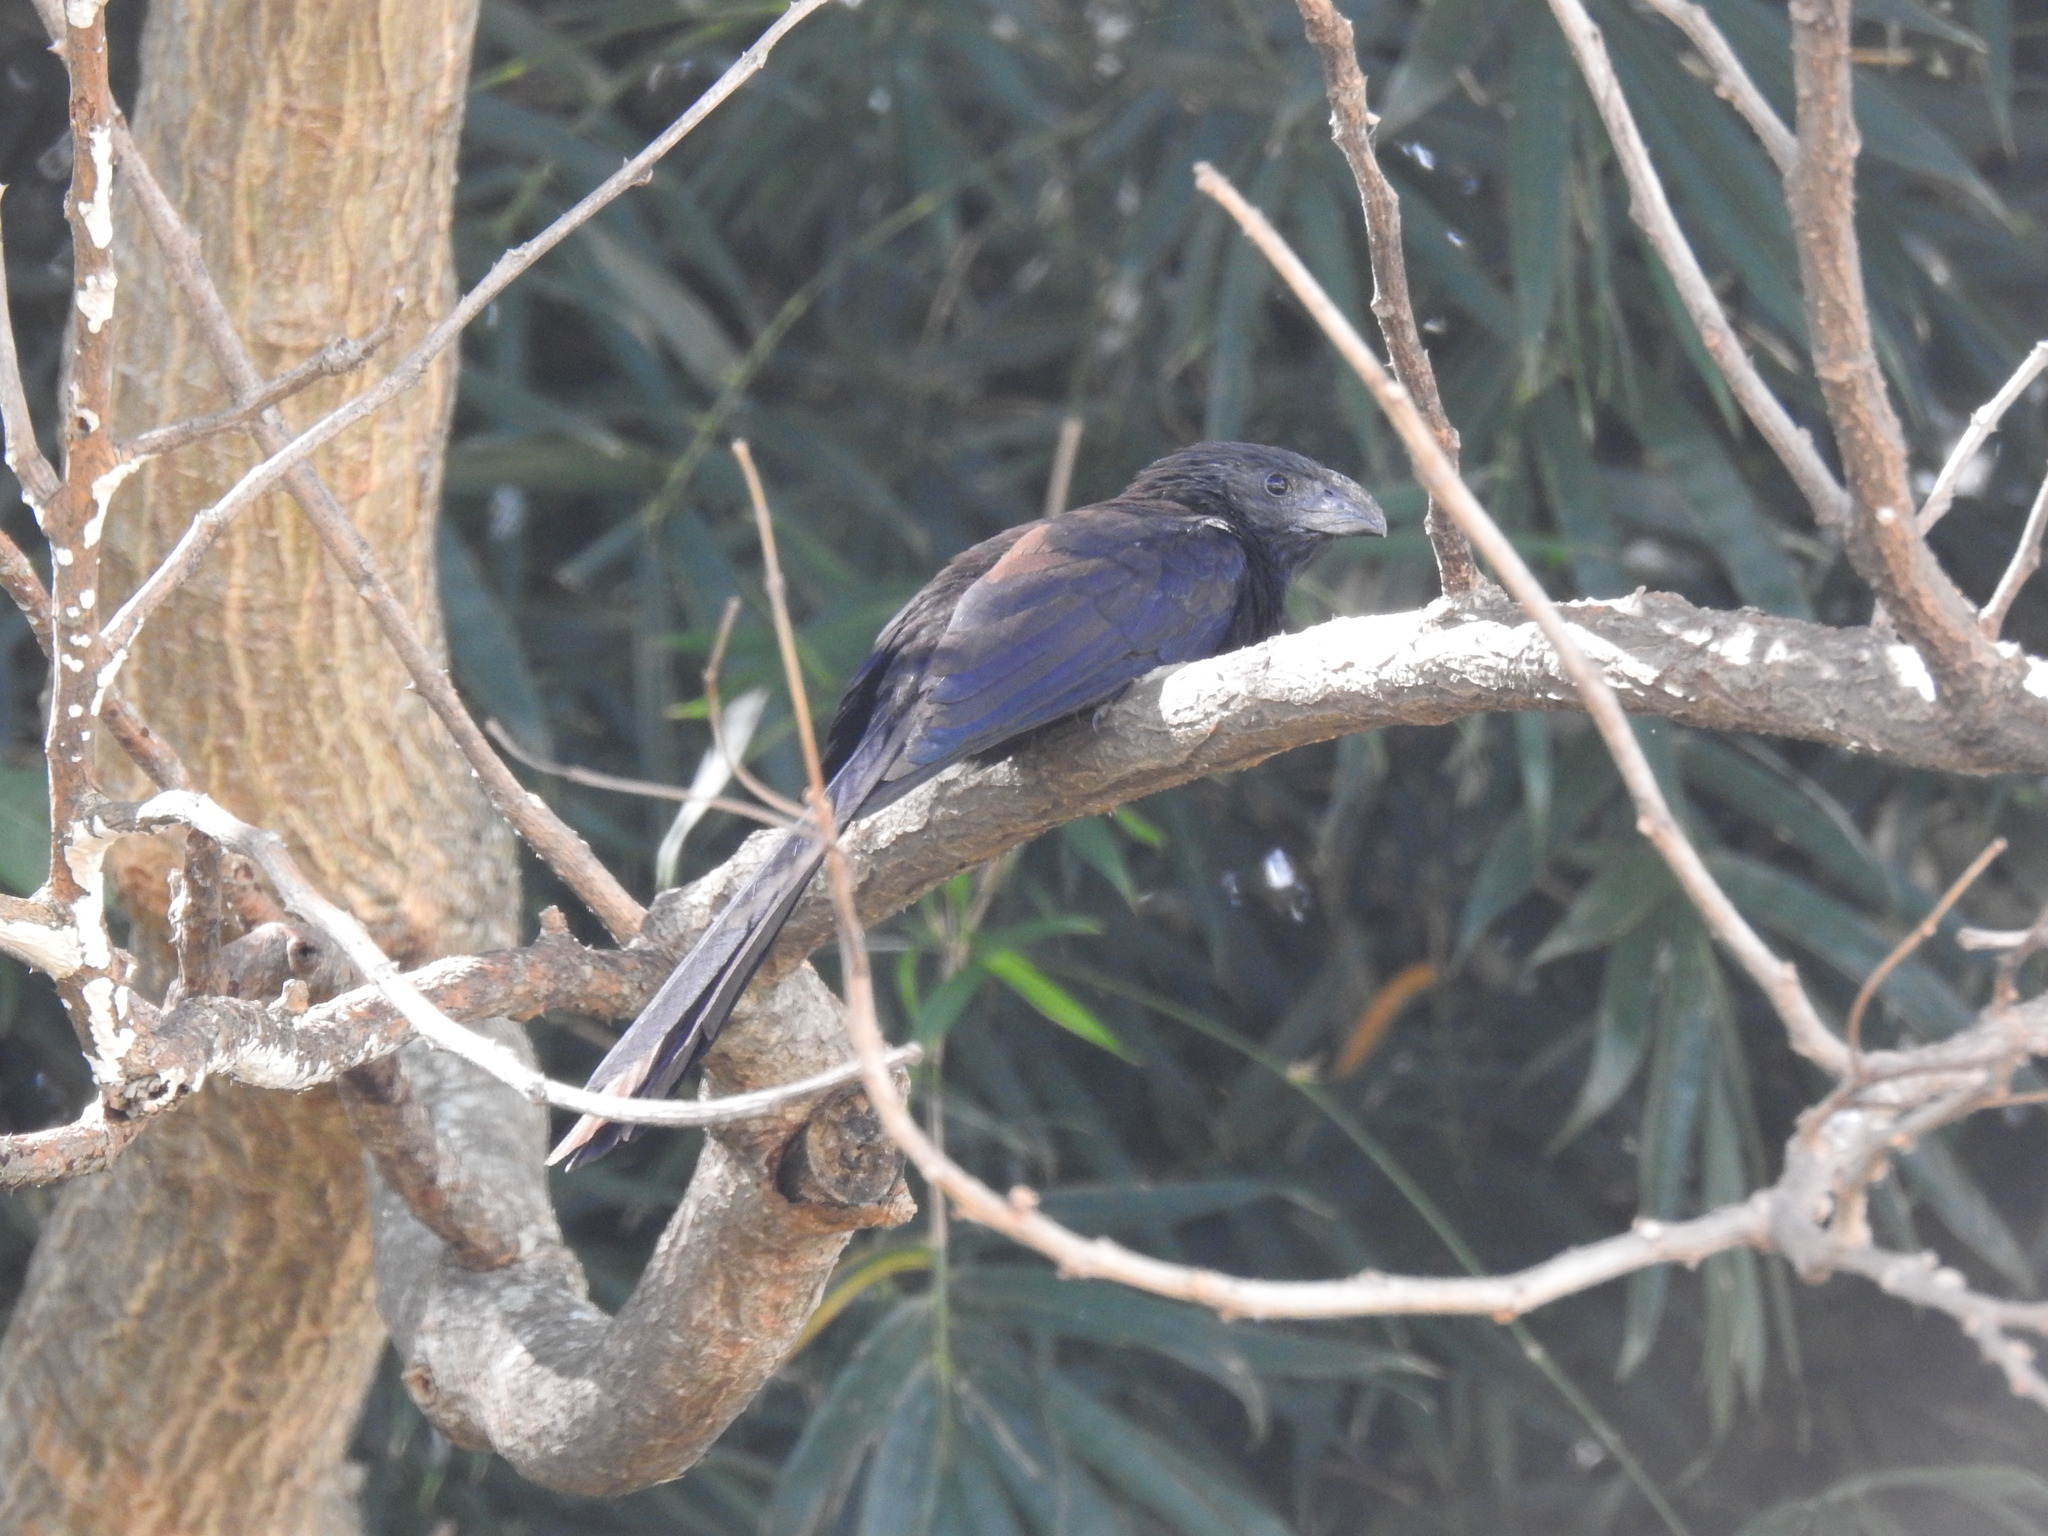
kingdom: Animalia
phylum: Chordata
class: Aves
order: Cuculiformes
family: Cuculidae
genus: Crotophaga
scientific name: Crotophaga sulcirostris
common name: Groove-billed ani
